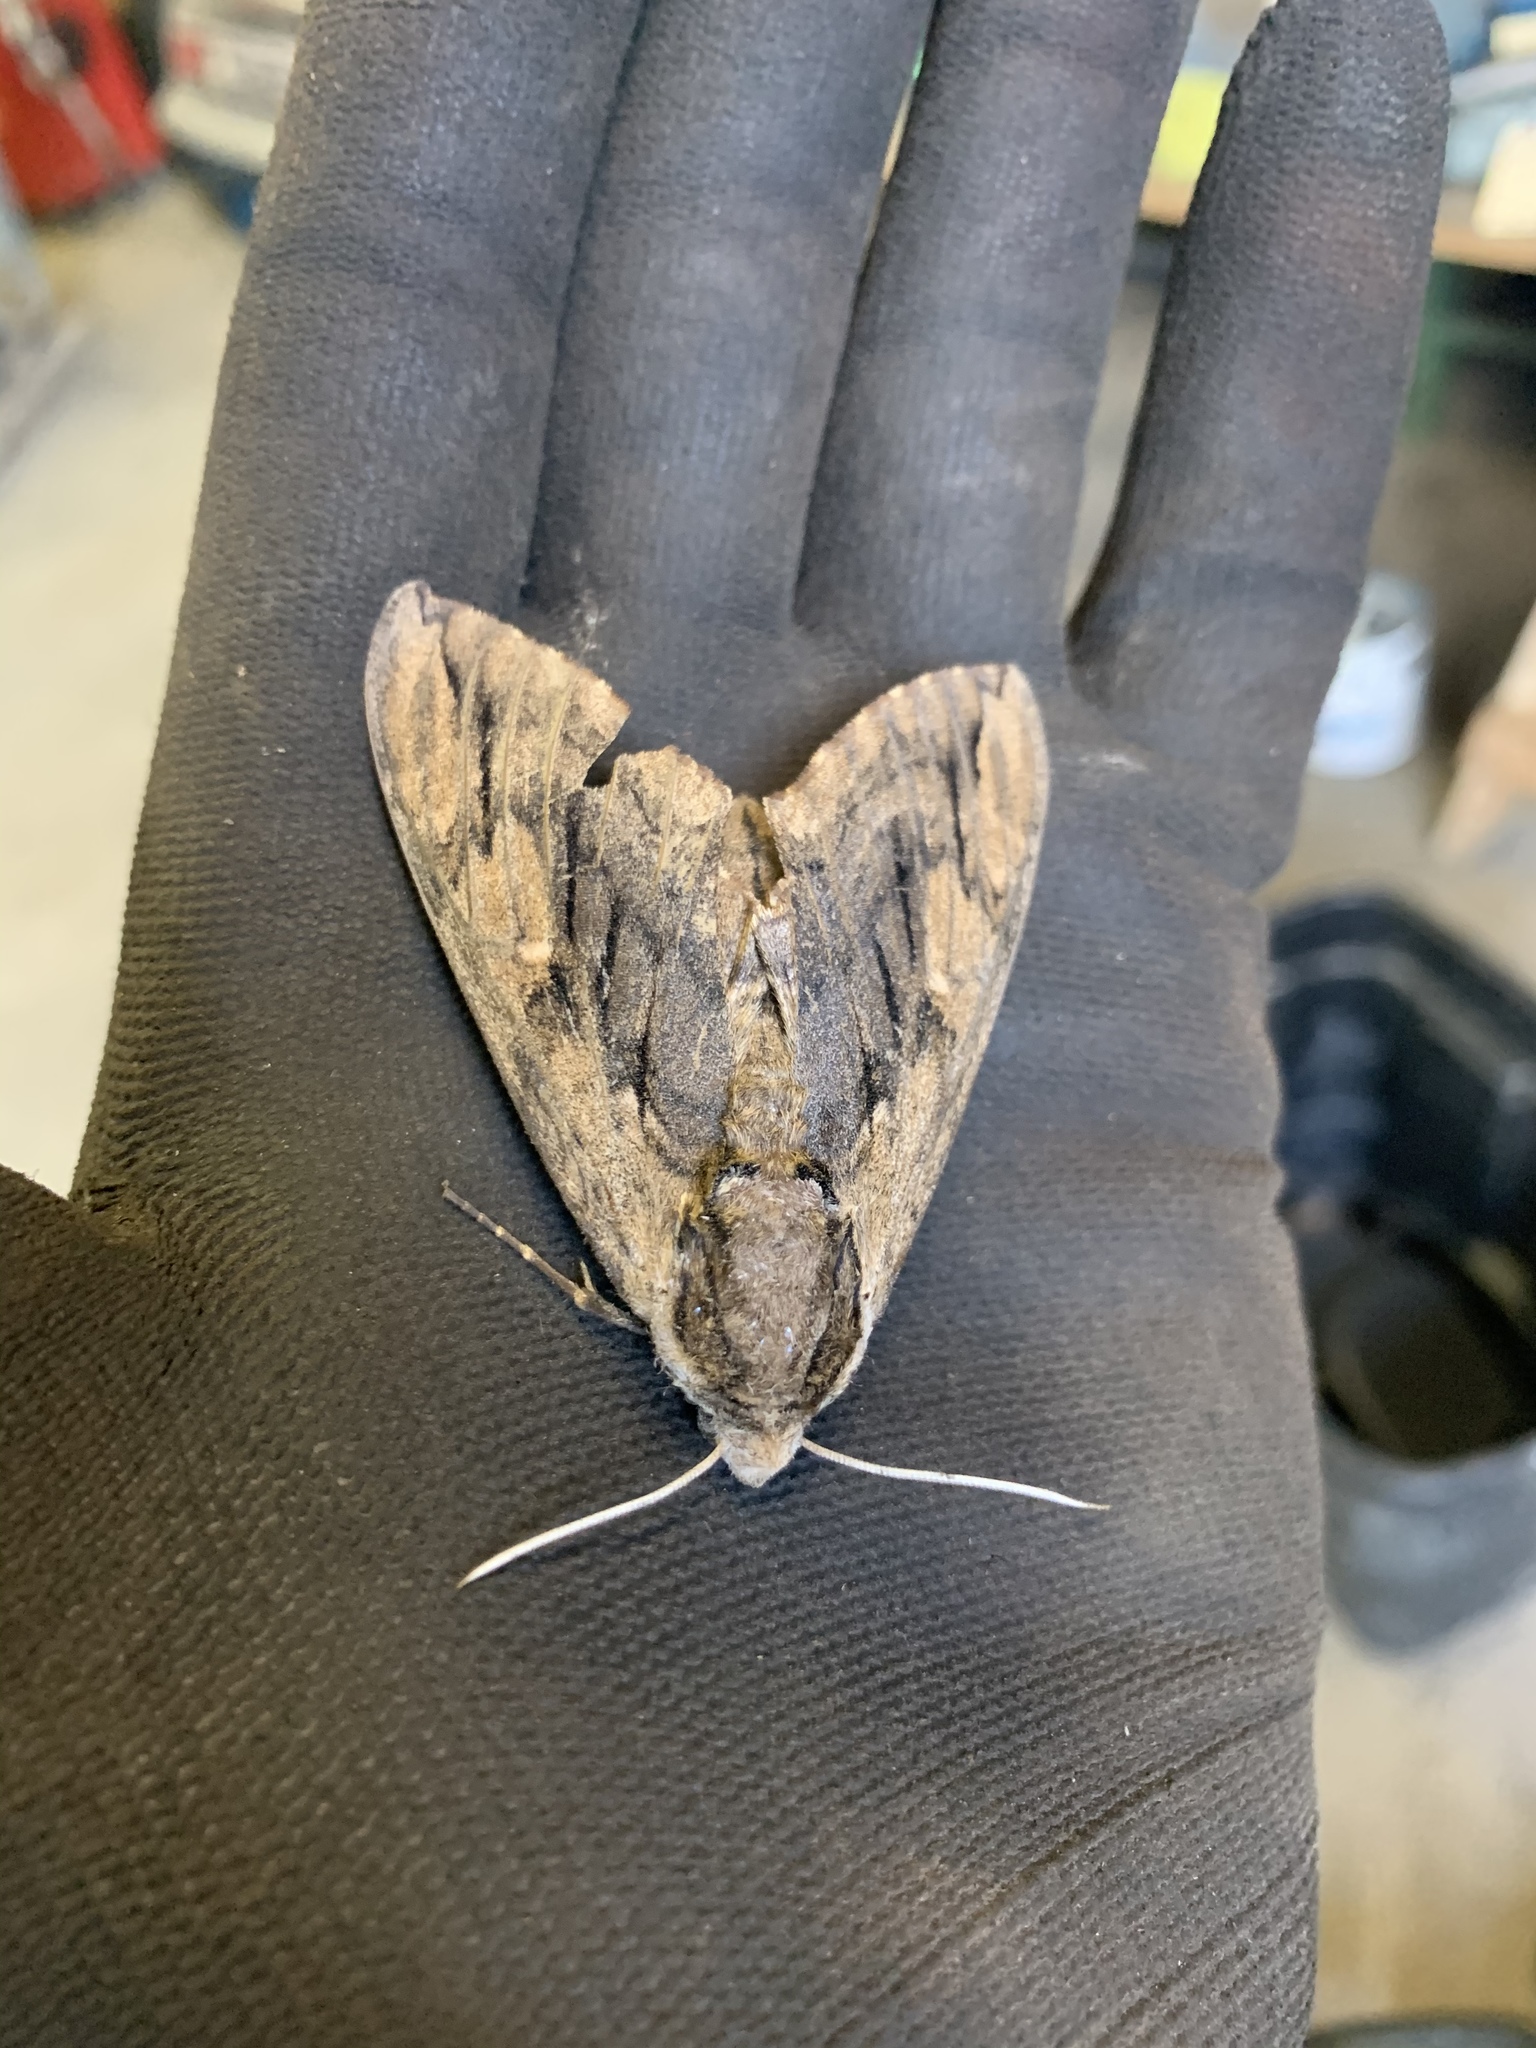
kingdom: Animalia
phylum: Arthropoda
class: Insecta
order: Lepidoptera
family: Sphingidae
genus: Ceratomia
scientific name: Ceratomia amyntor
